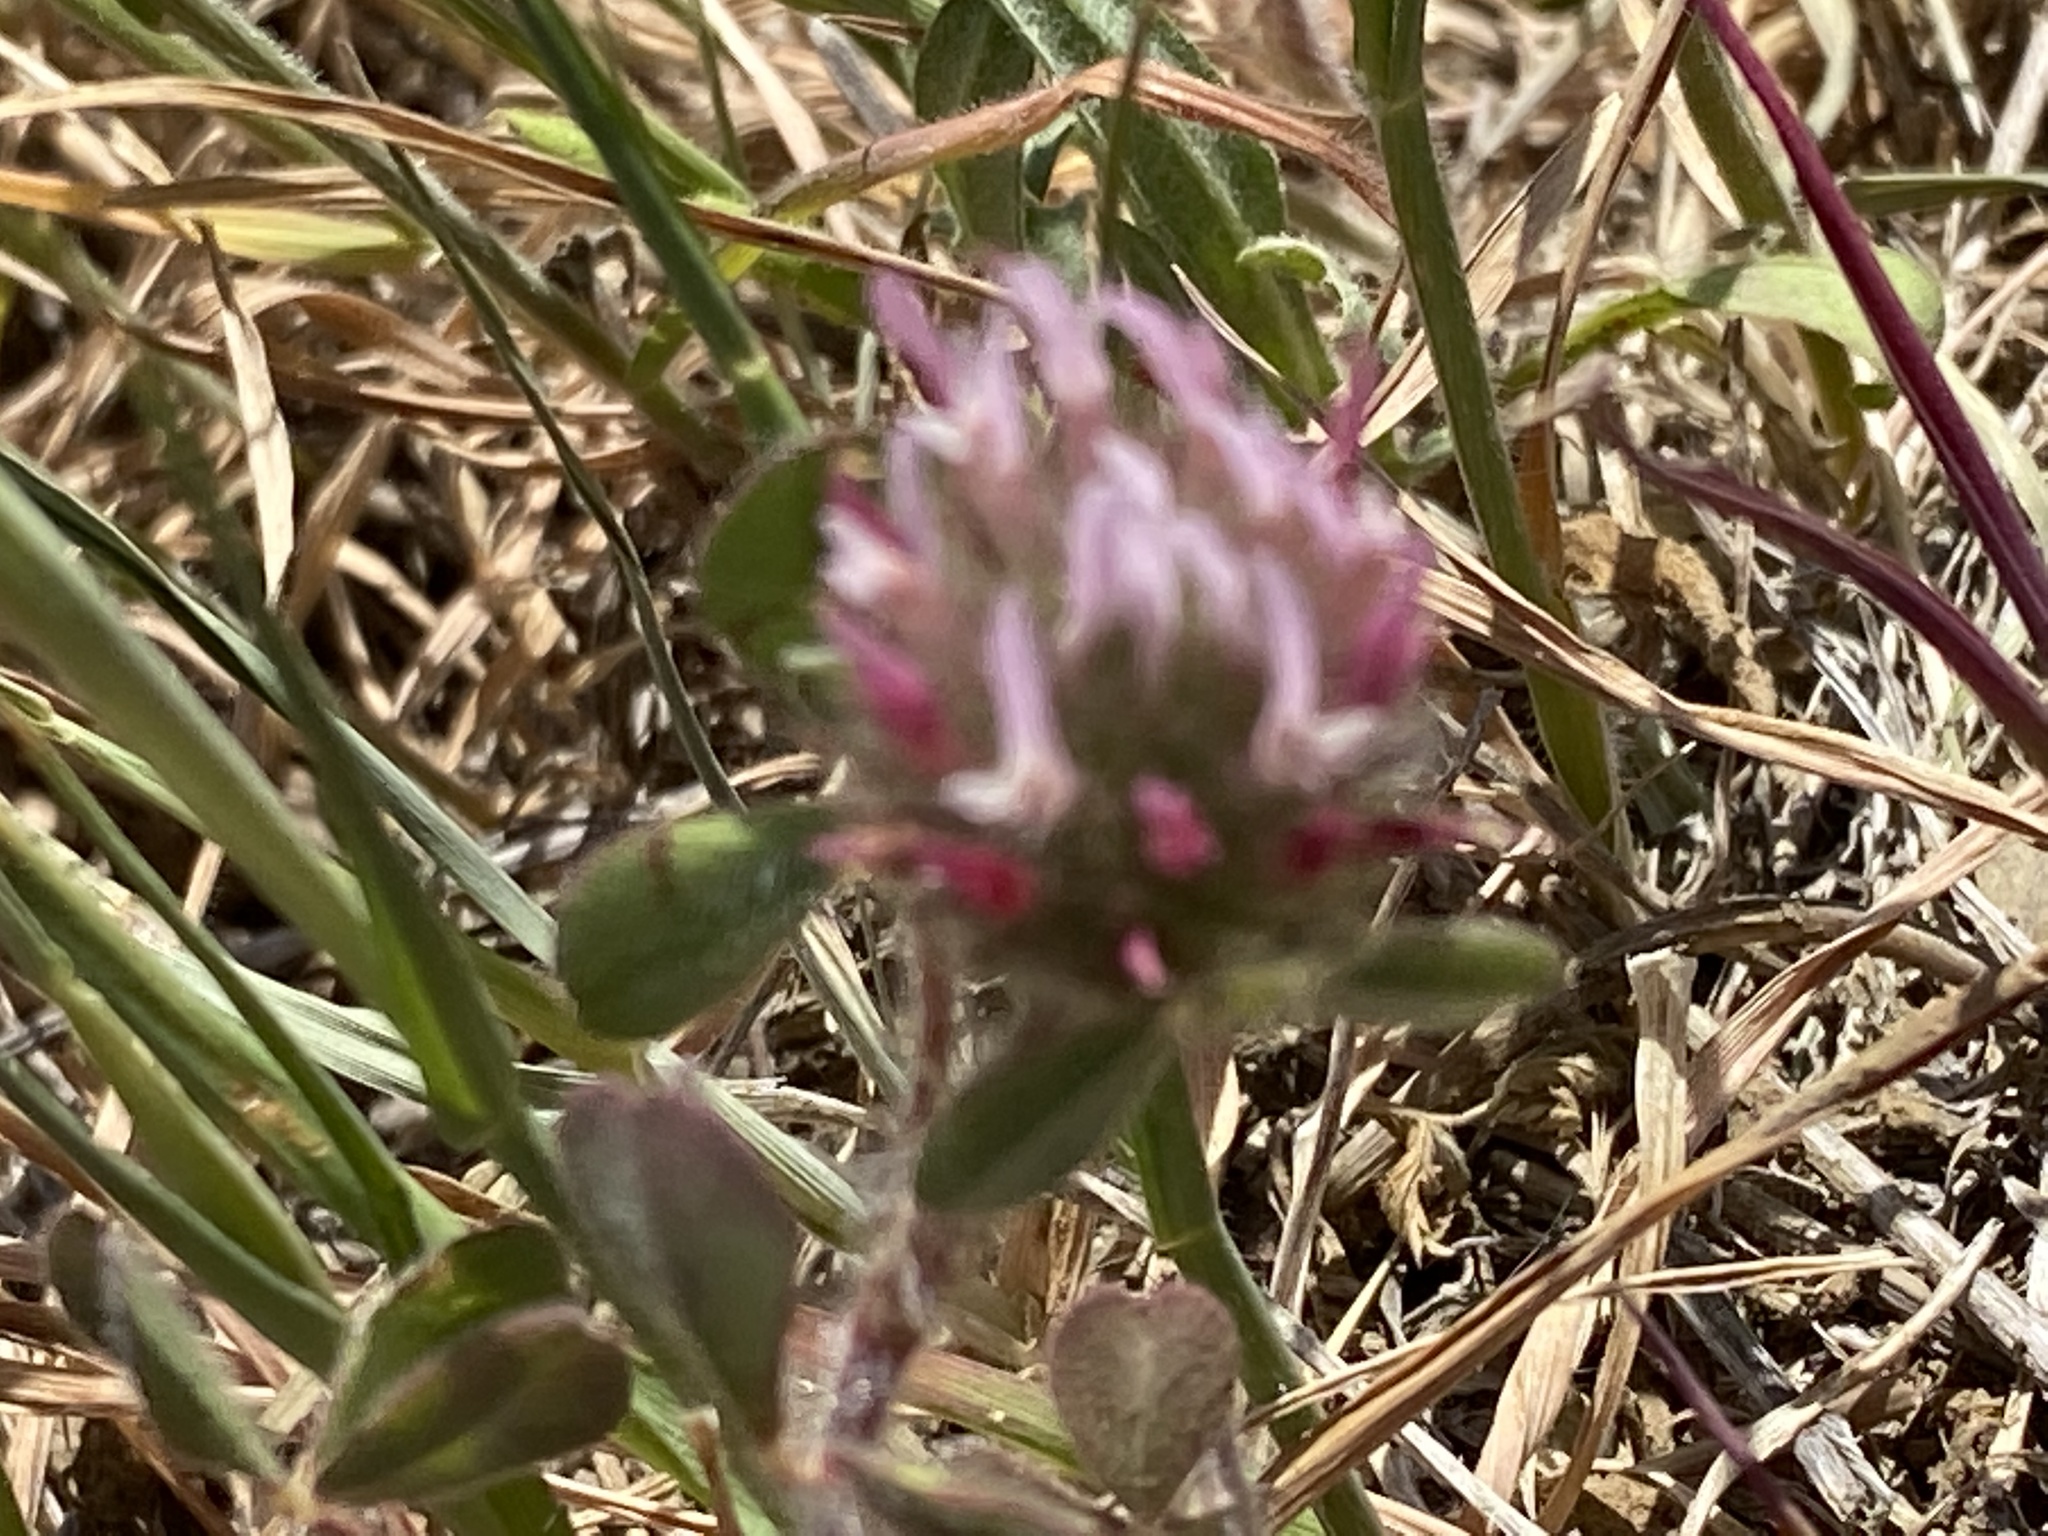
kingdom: Plantae
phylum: Tracheophyta
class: Magnoliopsida
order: Fabales
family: Fabaceae
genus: Trifolium
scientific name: Trifolium hirtum
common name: Rose clover
